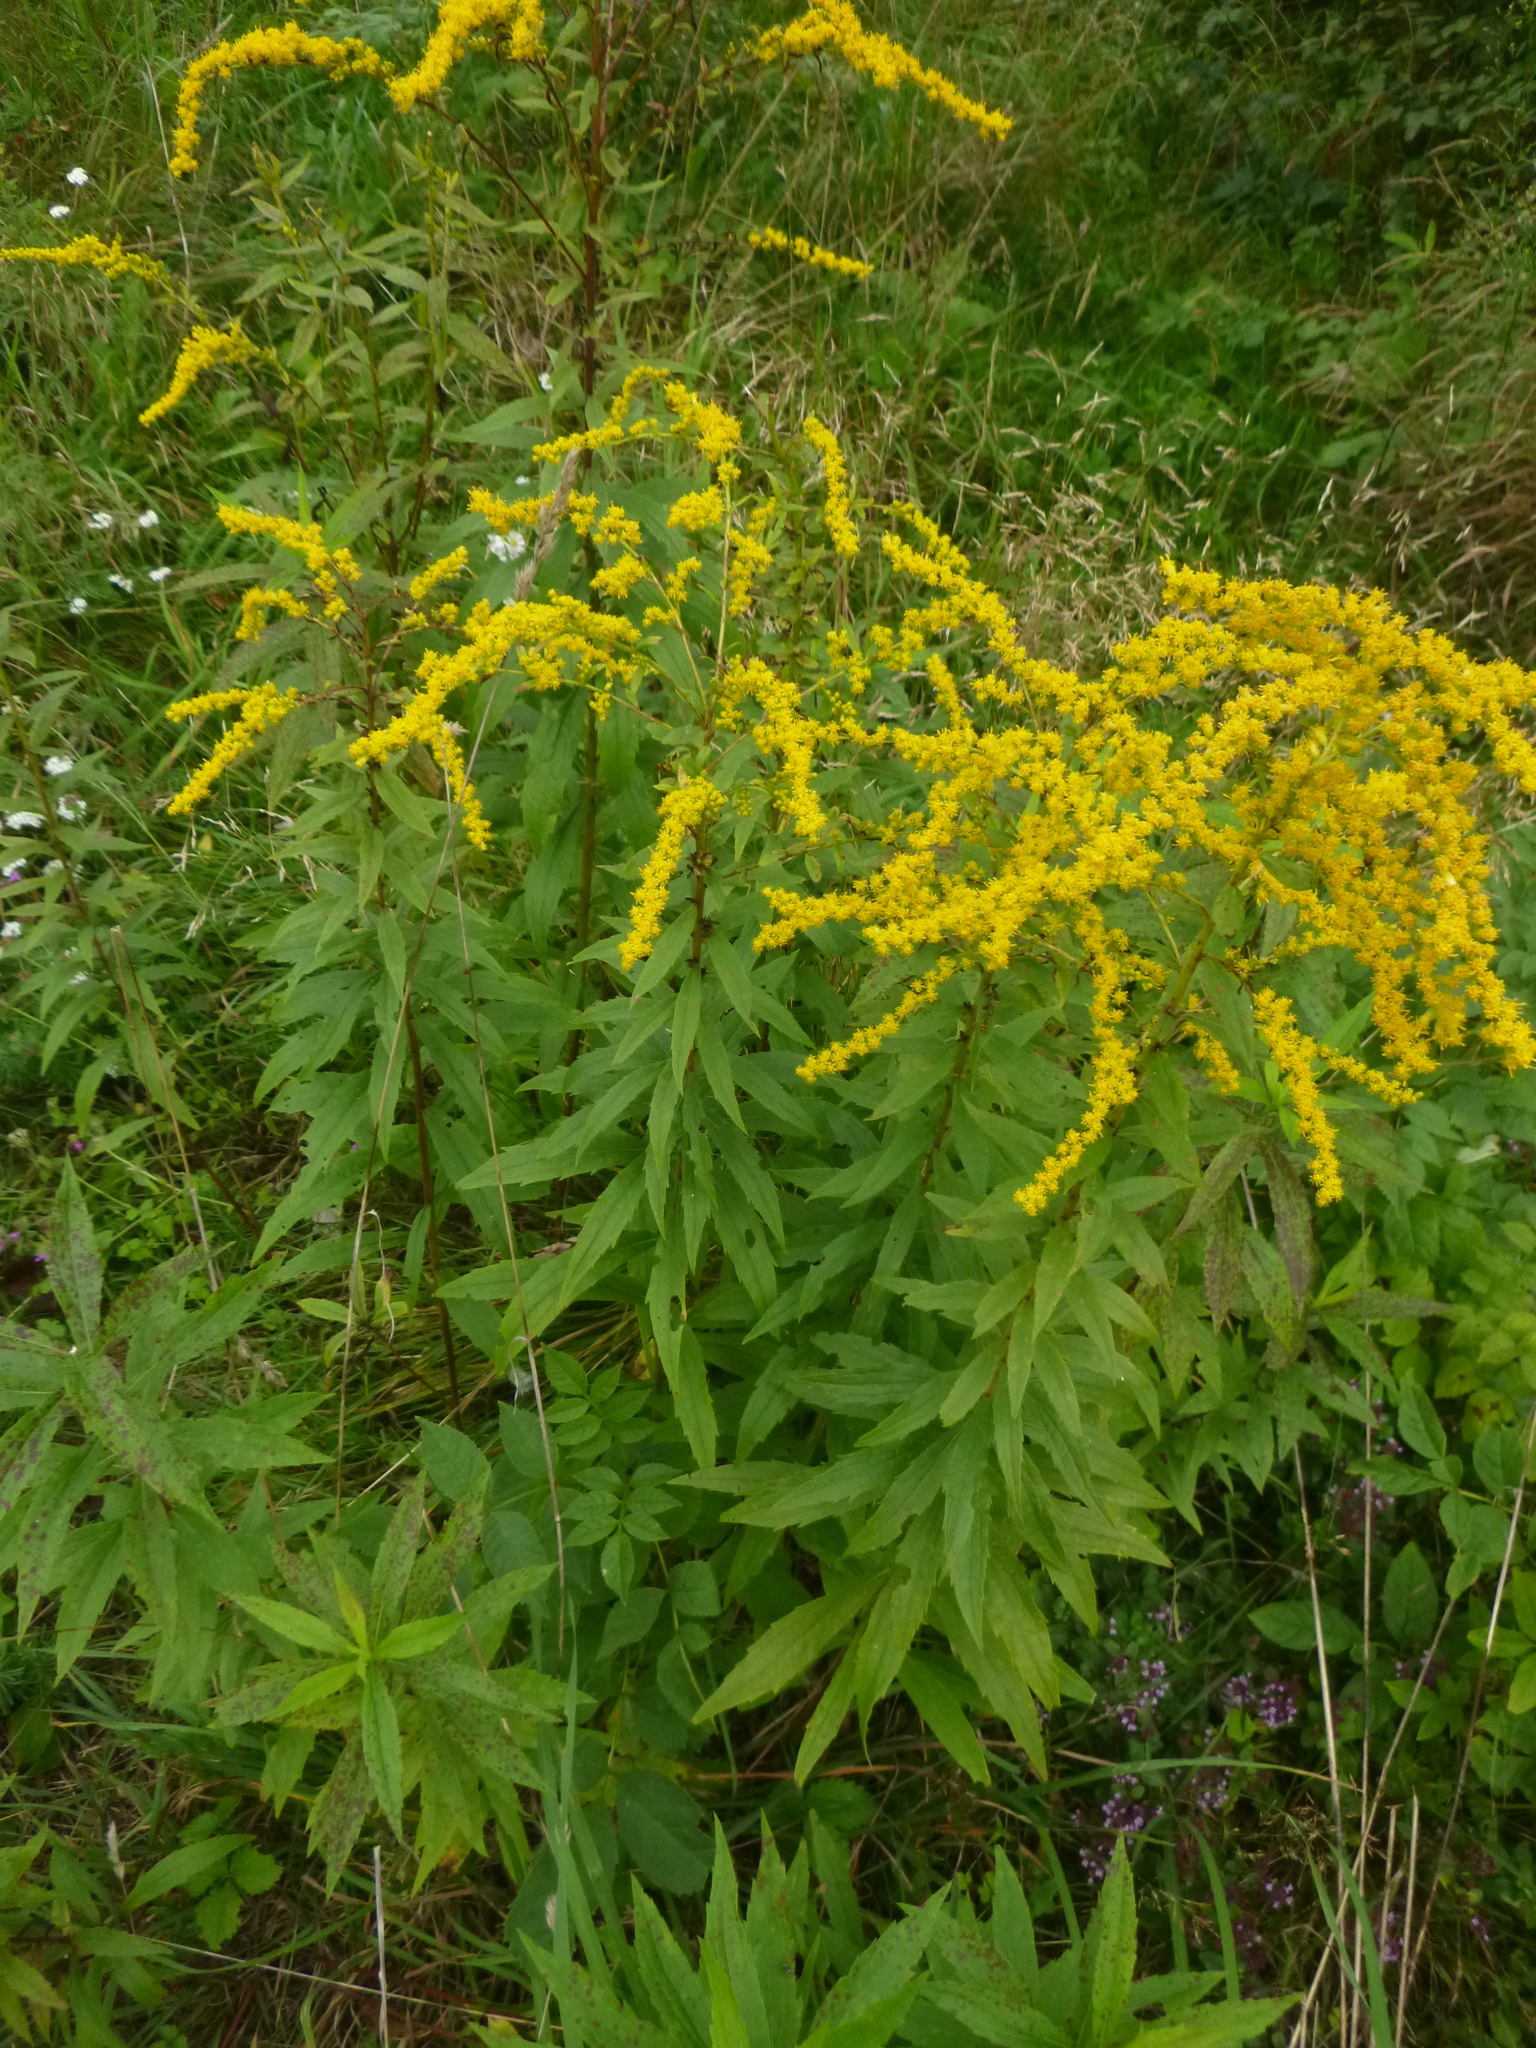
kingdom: Plantae
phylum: Tracheophyta
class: Magnoliopsida
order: Asterales
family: Asteraceae
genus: Solidago
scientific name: Solidago canadensis
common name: Canada goldenrod
